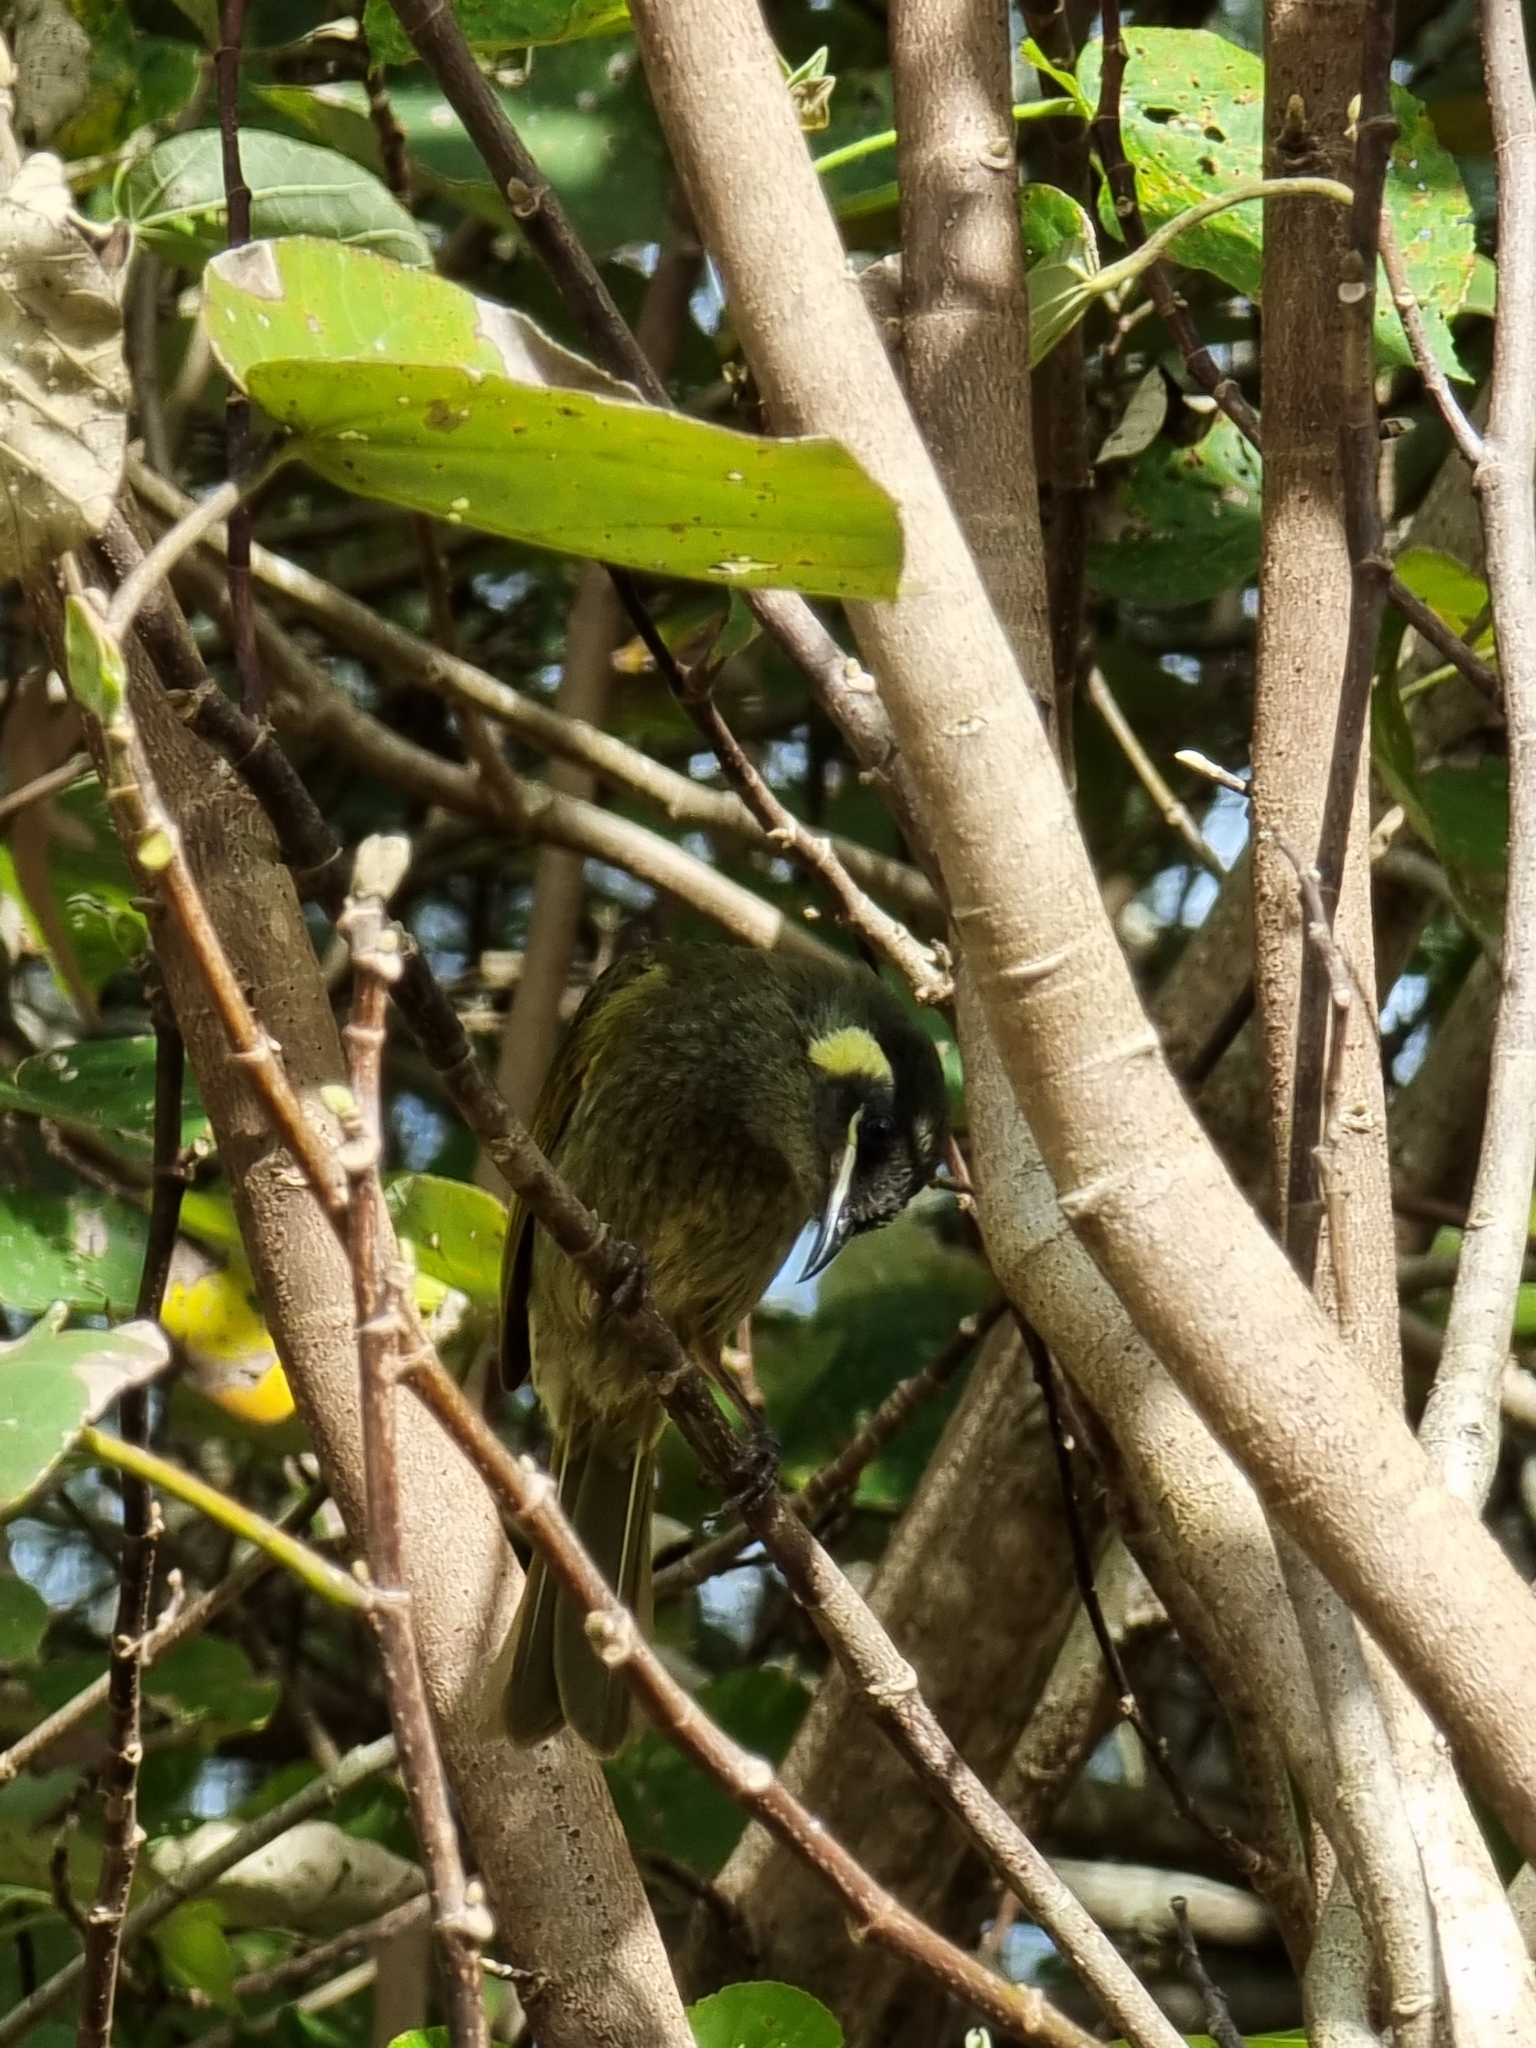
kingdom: Animalia
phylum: Chordata
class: Aves
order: Passeriformes
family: Meliphagidae
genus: Meliphaga
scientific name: Meliphaga lewinii
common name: Lewin's honeyeater
